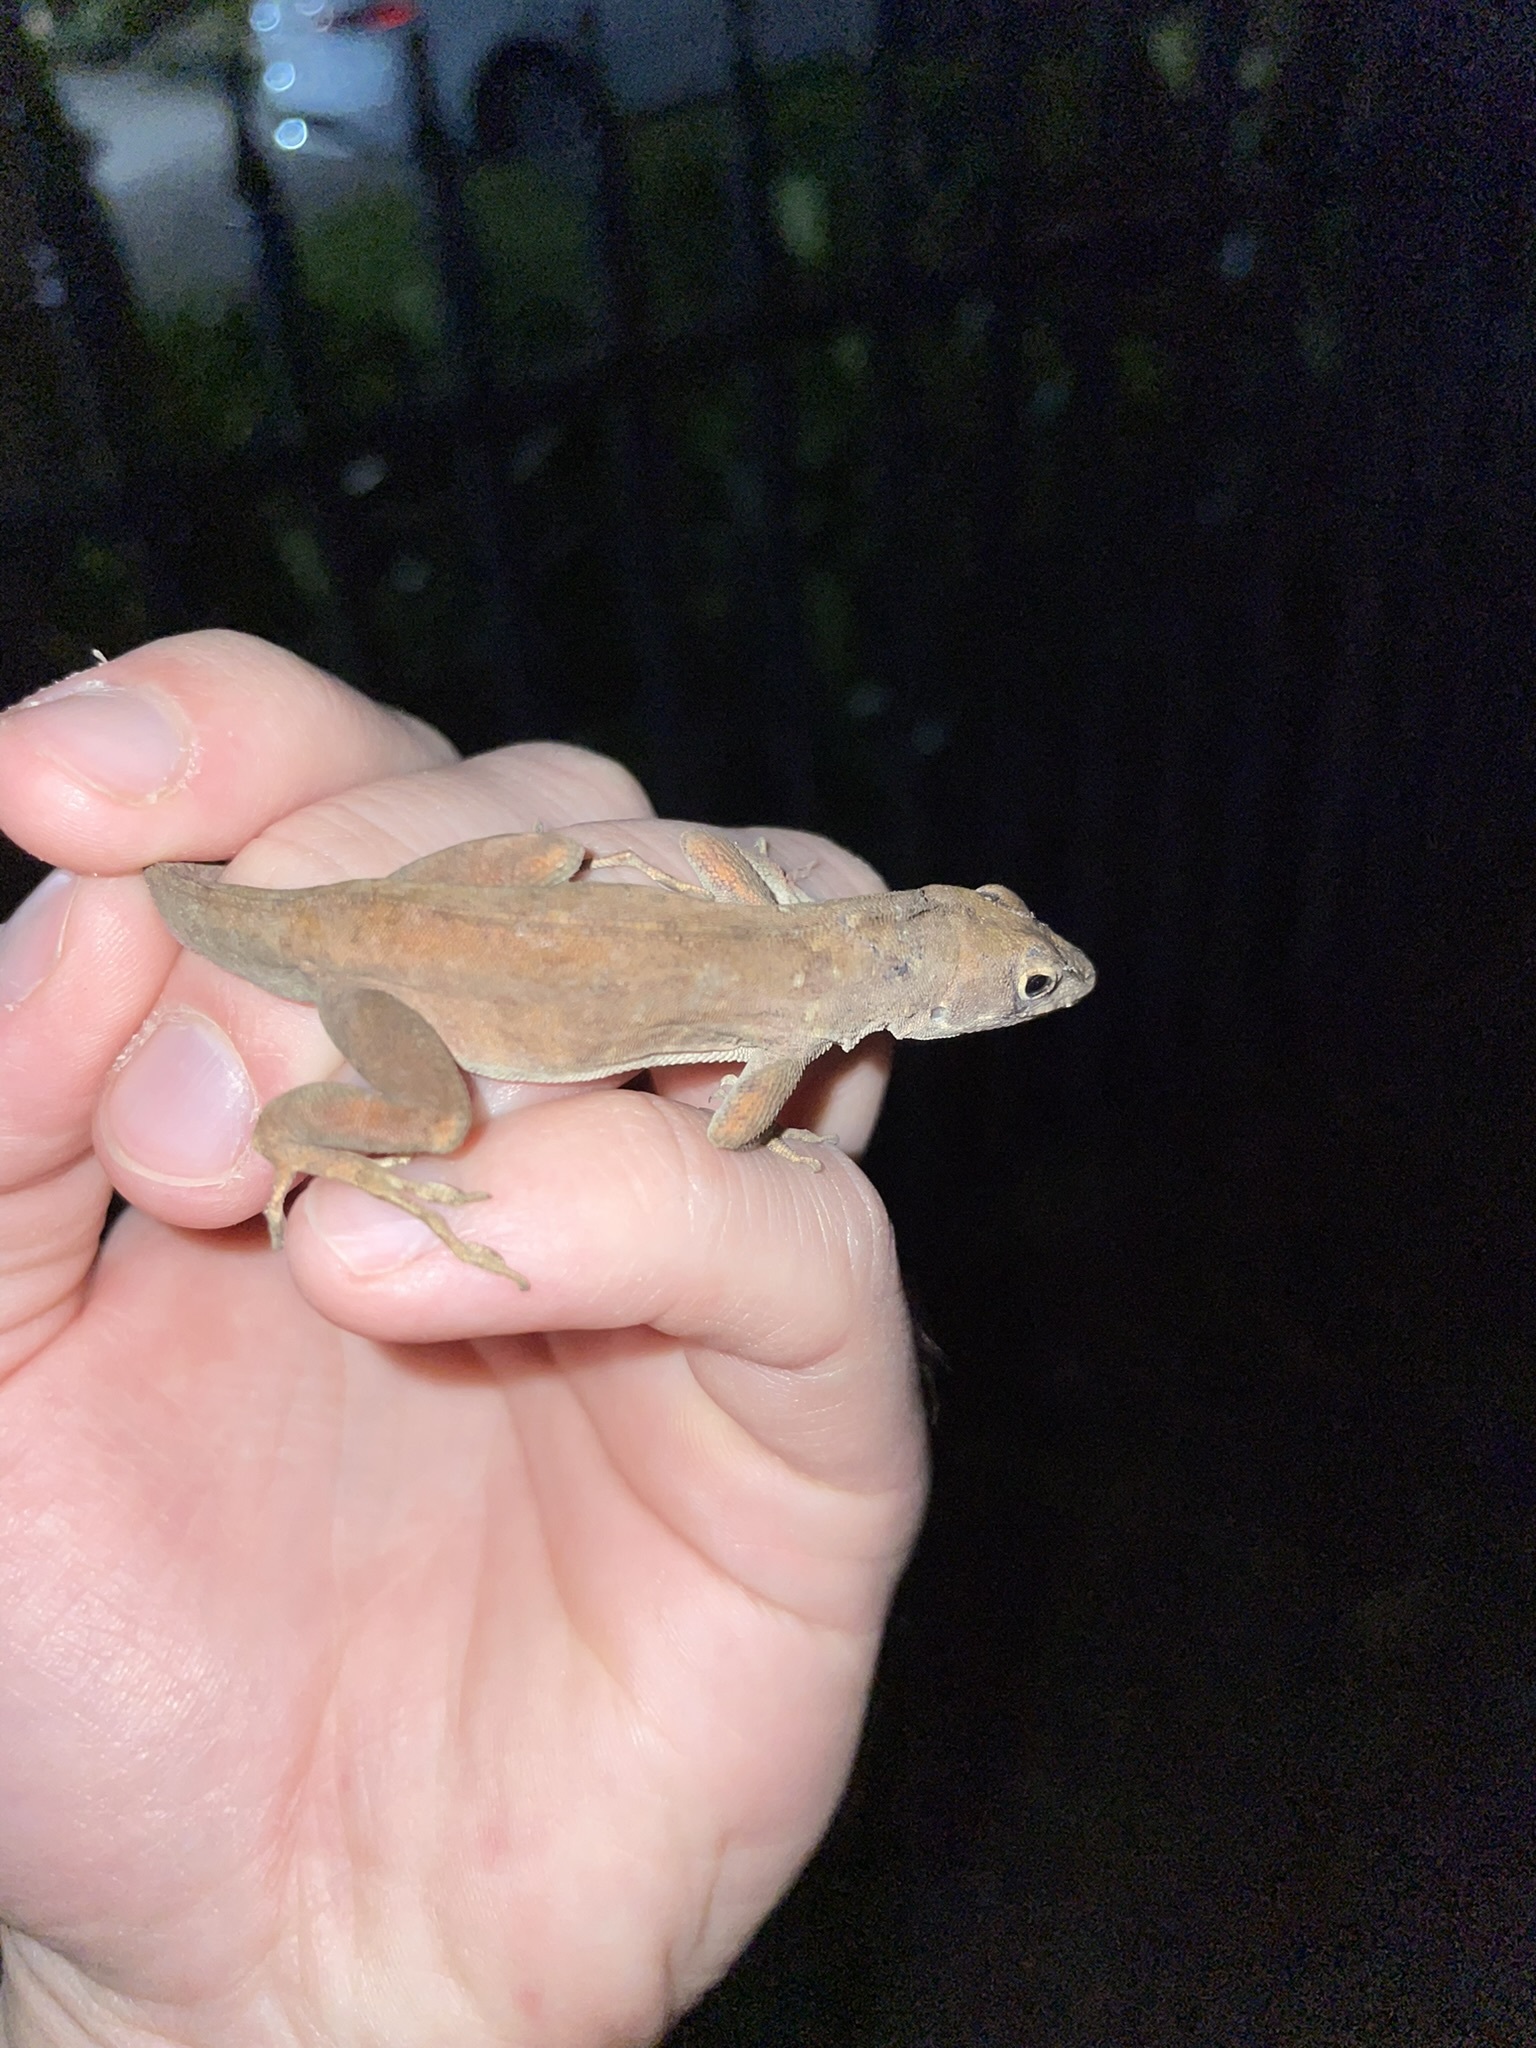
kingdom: Animalia
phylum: Chordata
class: Squamata
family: Dactyloidae
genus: Anolis
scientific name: Anolis sagrei
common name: Brown anole
